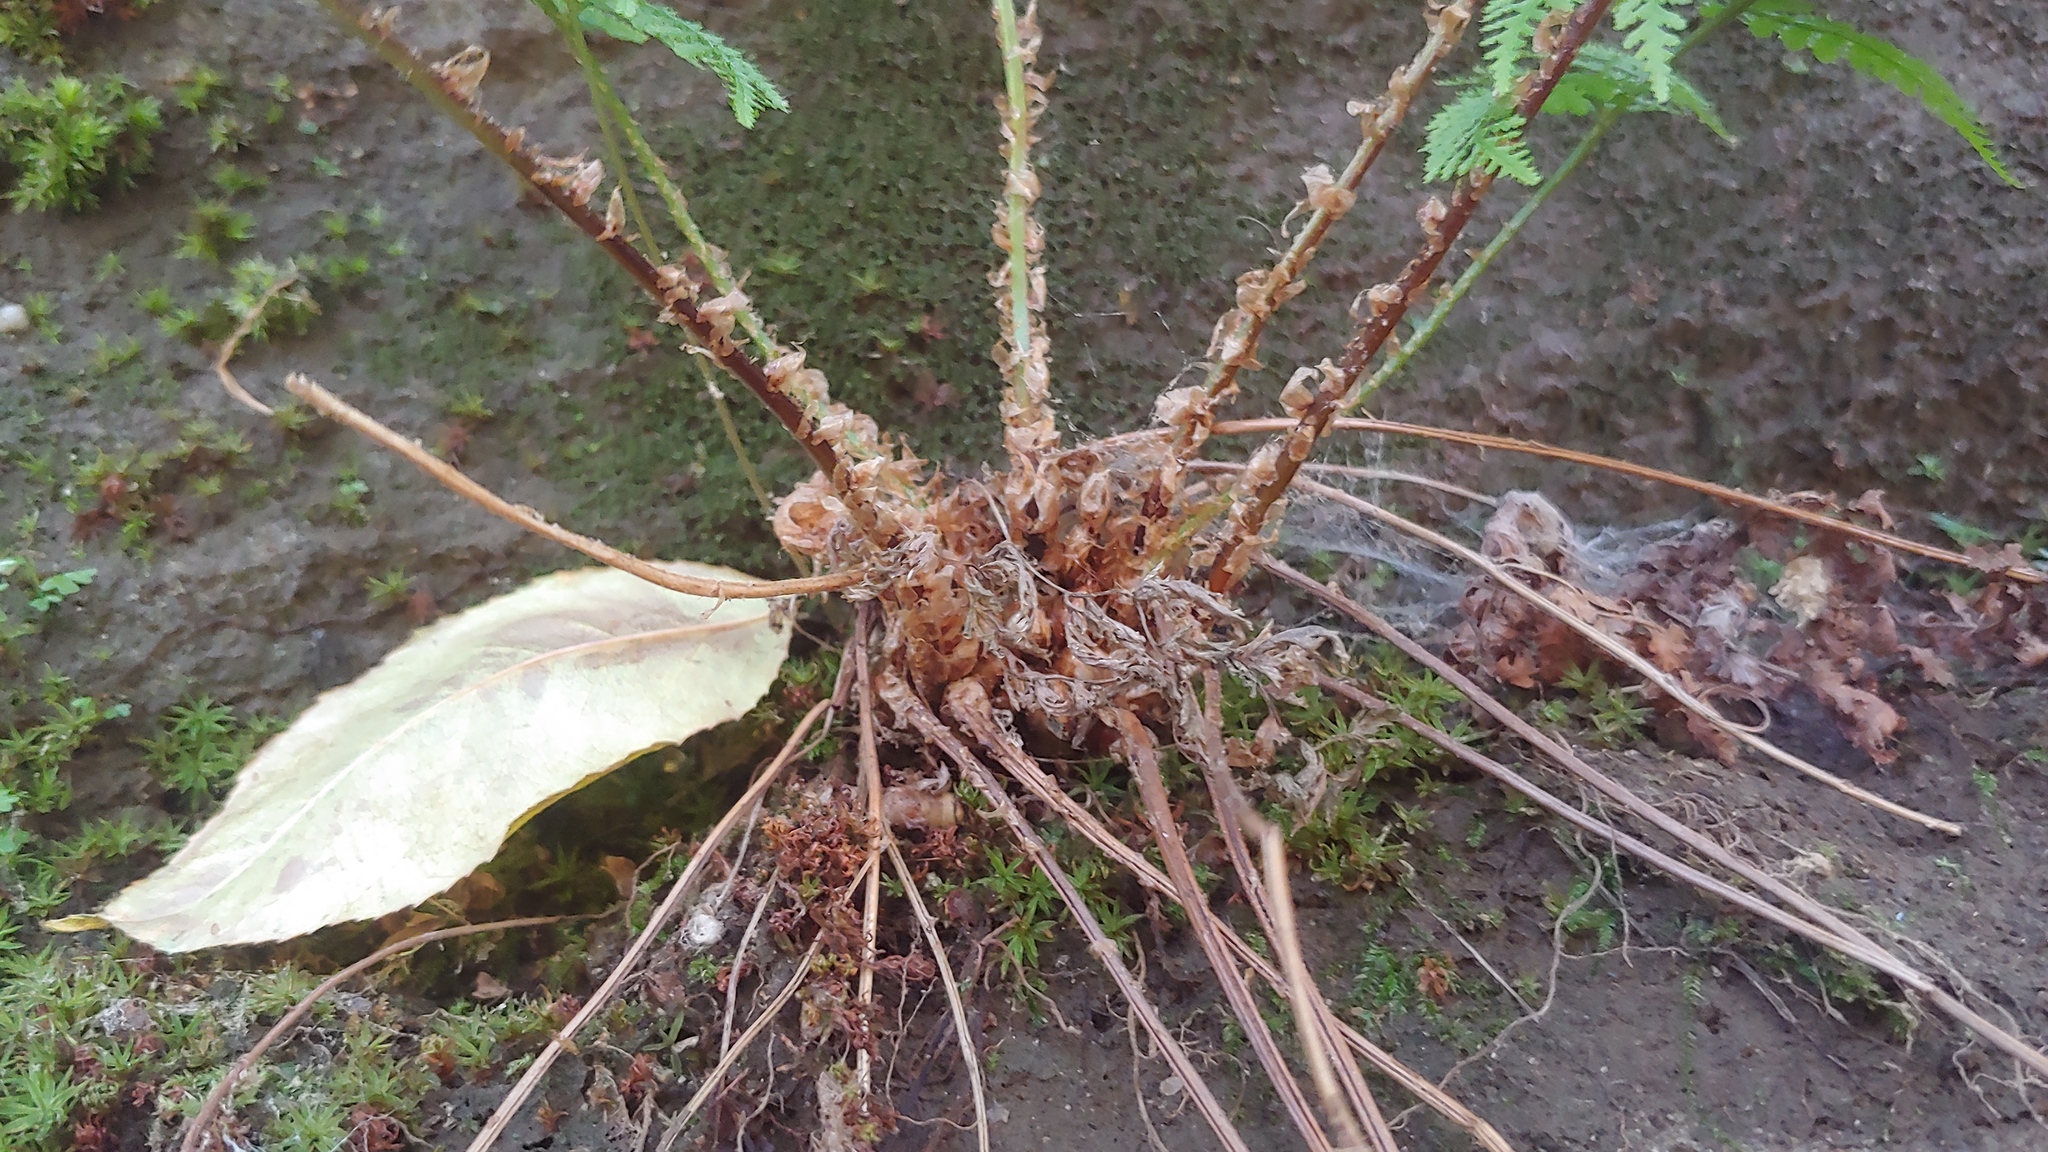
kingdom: Plantae
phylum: Tracheophyta
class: Polypodiopsida
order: Polypodiales
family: Dryopteridaceae
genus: Dryopteris
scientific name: Dryopteris intermedia
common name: Evergreen wood fern
